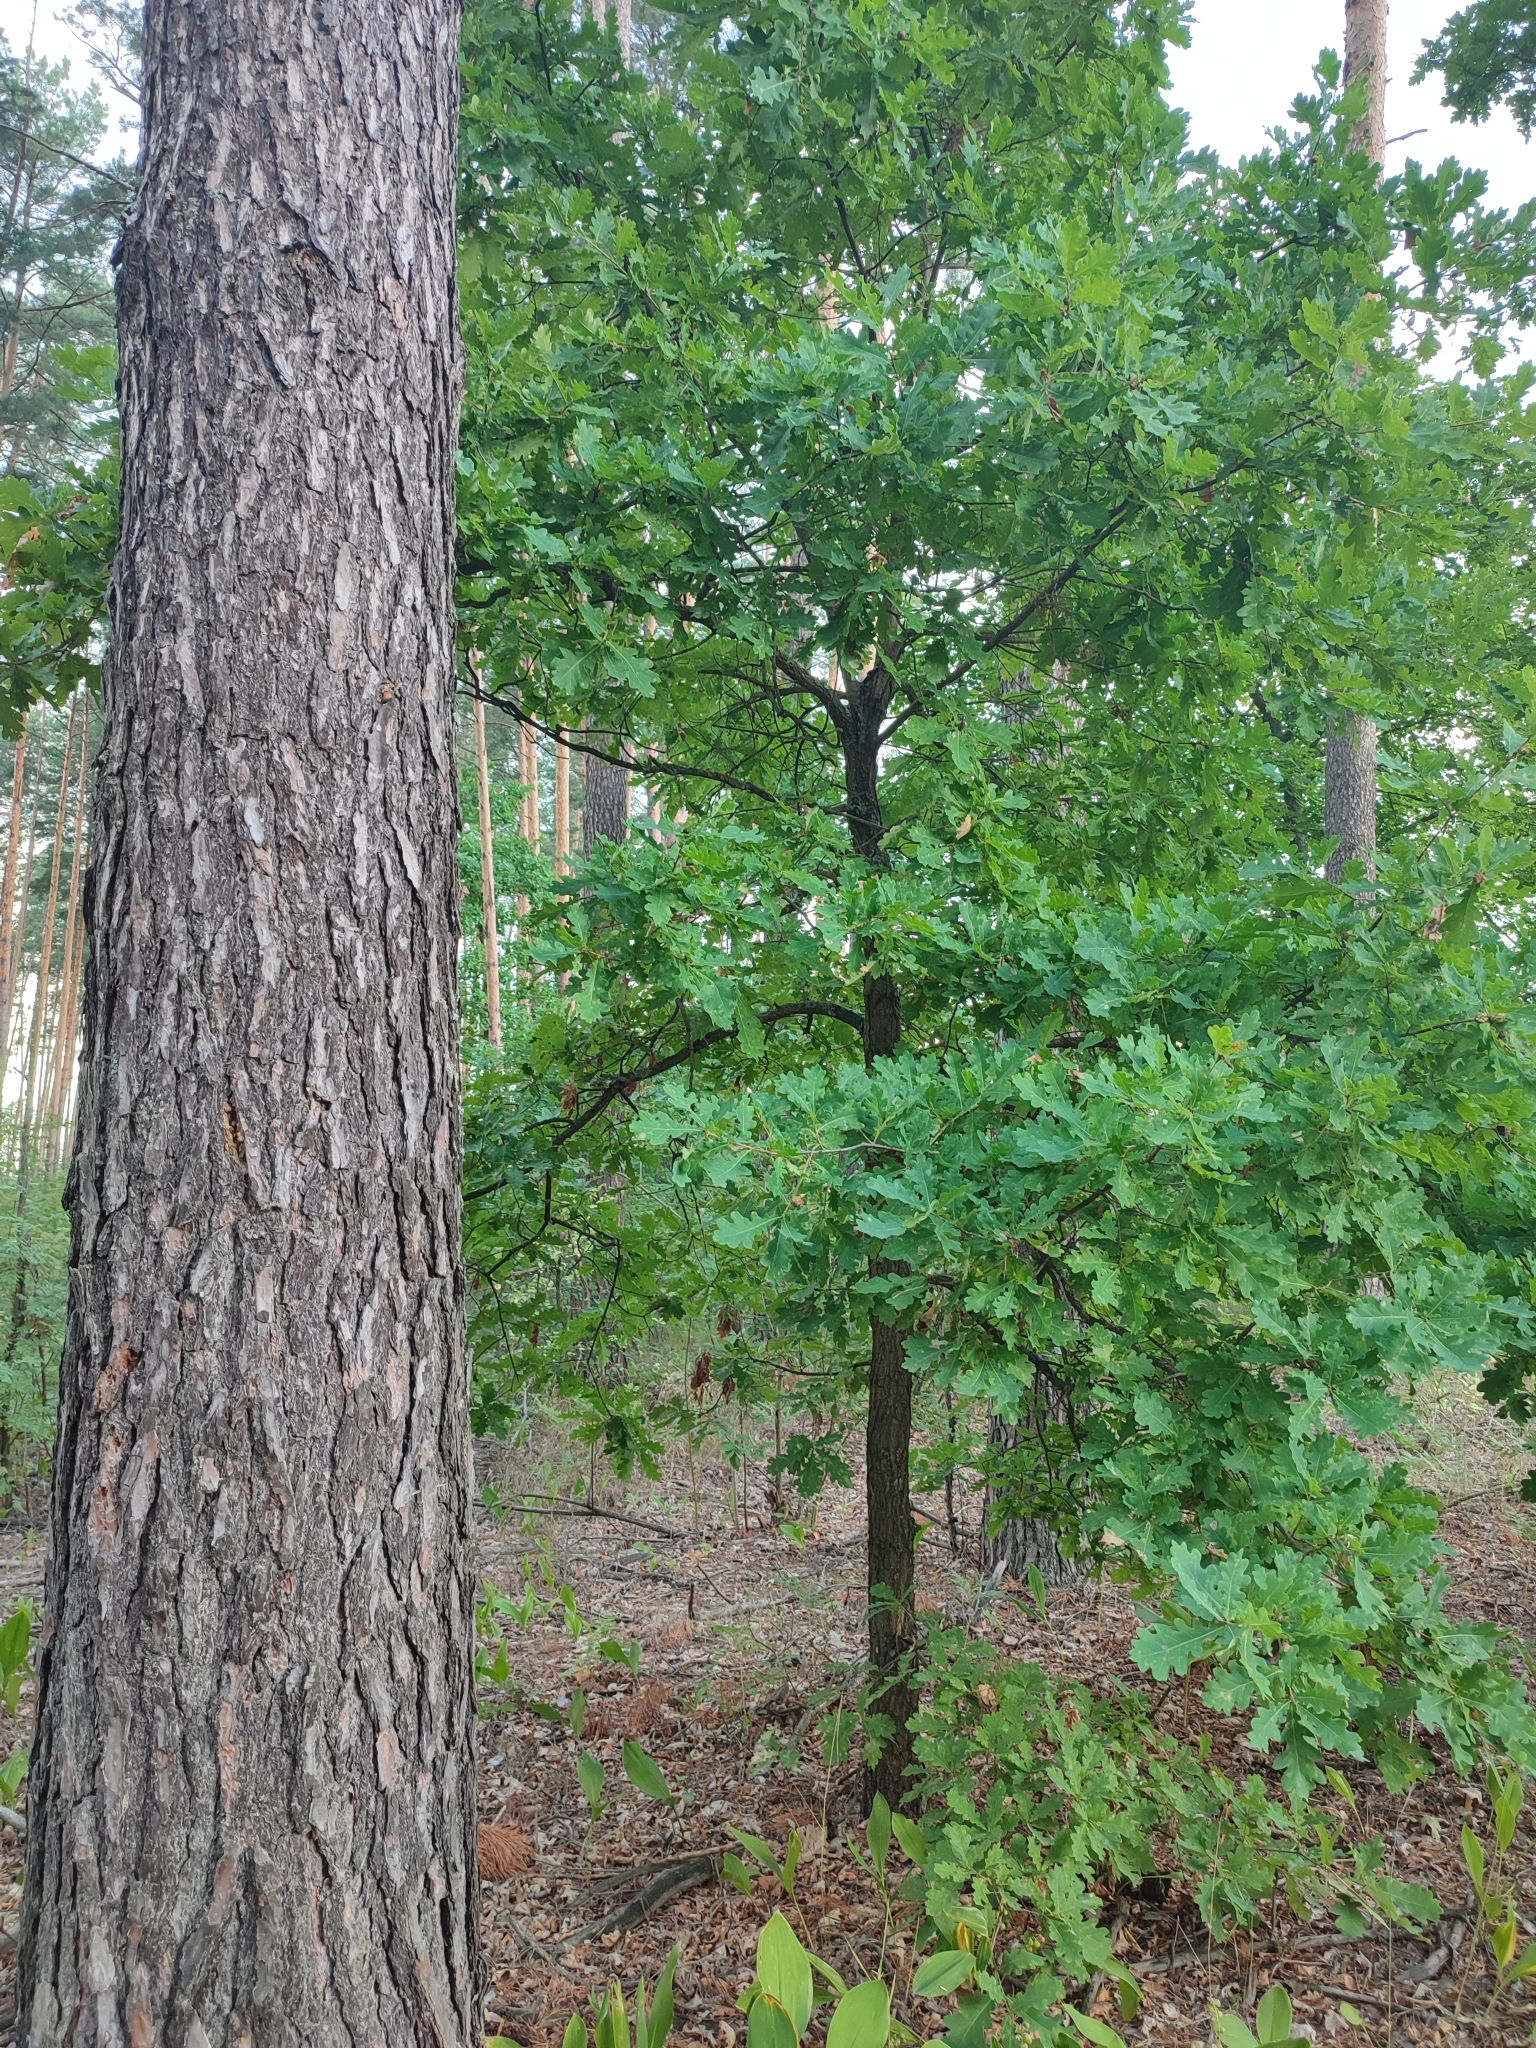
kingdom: Plantae
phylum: Tracheophyta
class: Magnoliopsida
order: Fagales
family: Fagaceae
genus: Quercus
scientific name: Quercus robur
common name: Pedunculate oak
